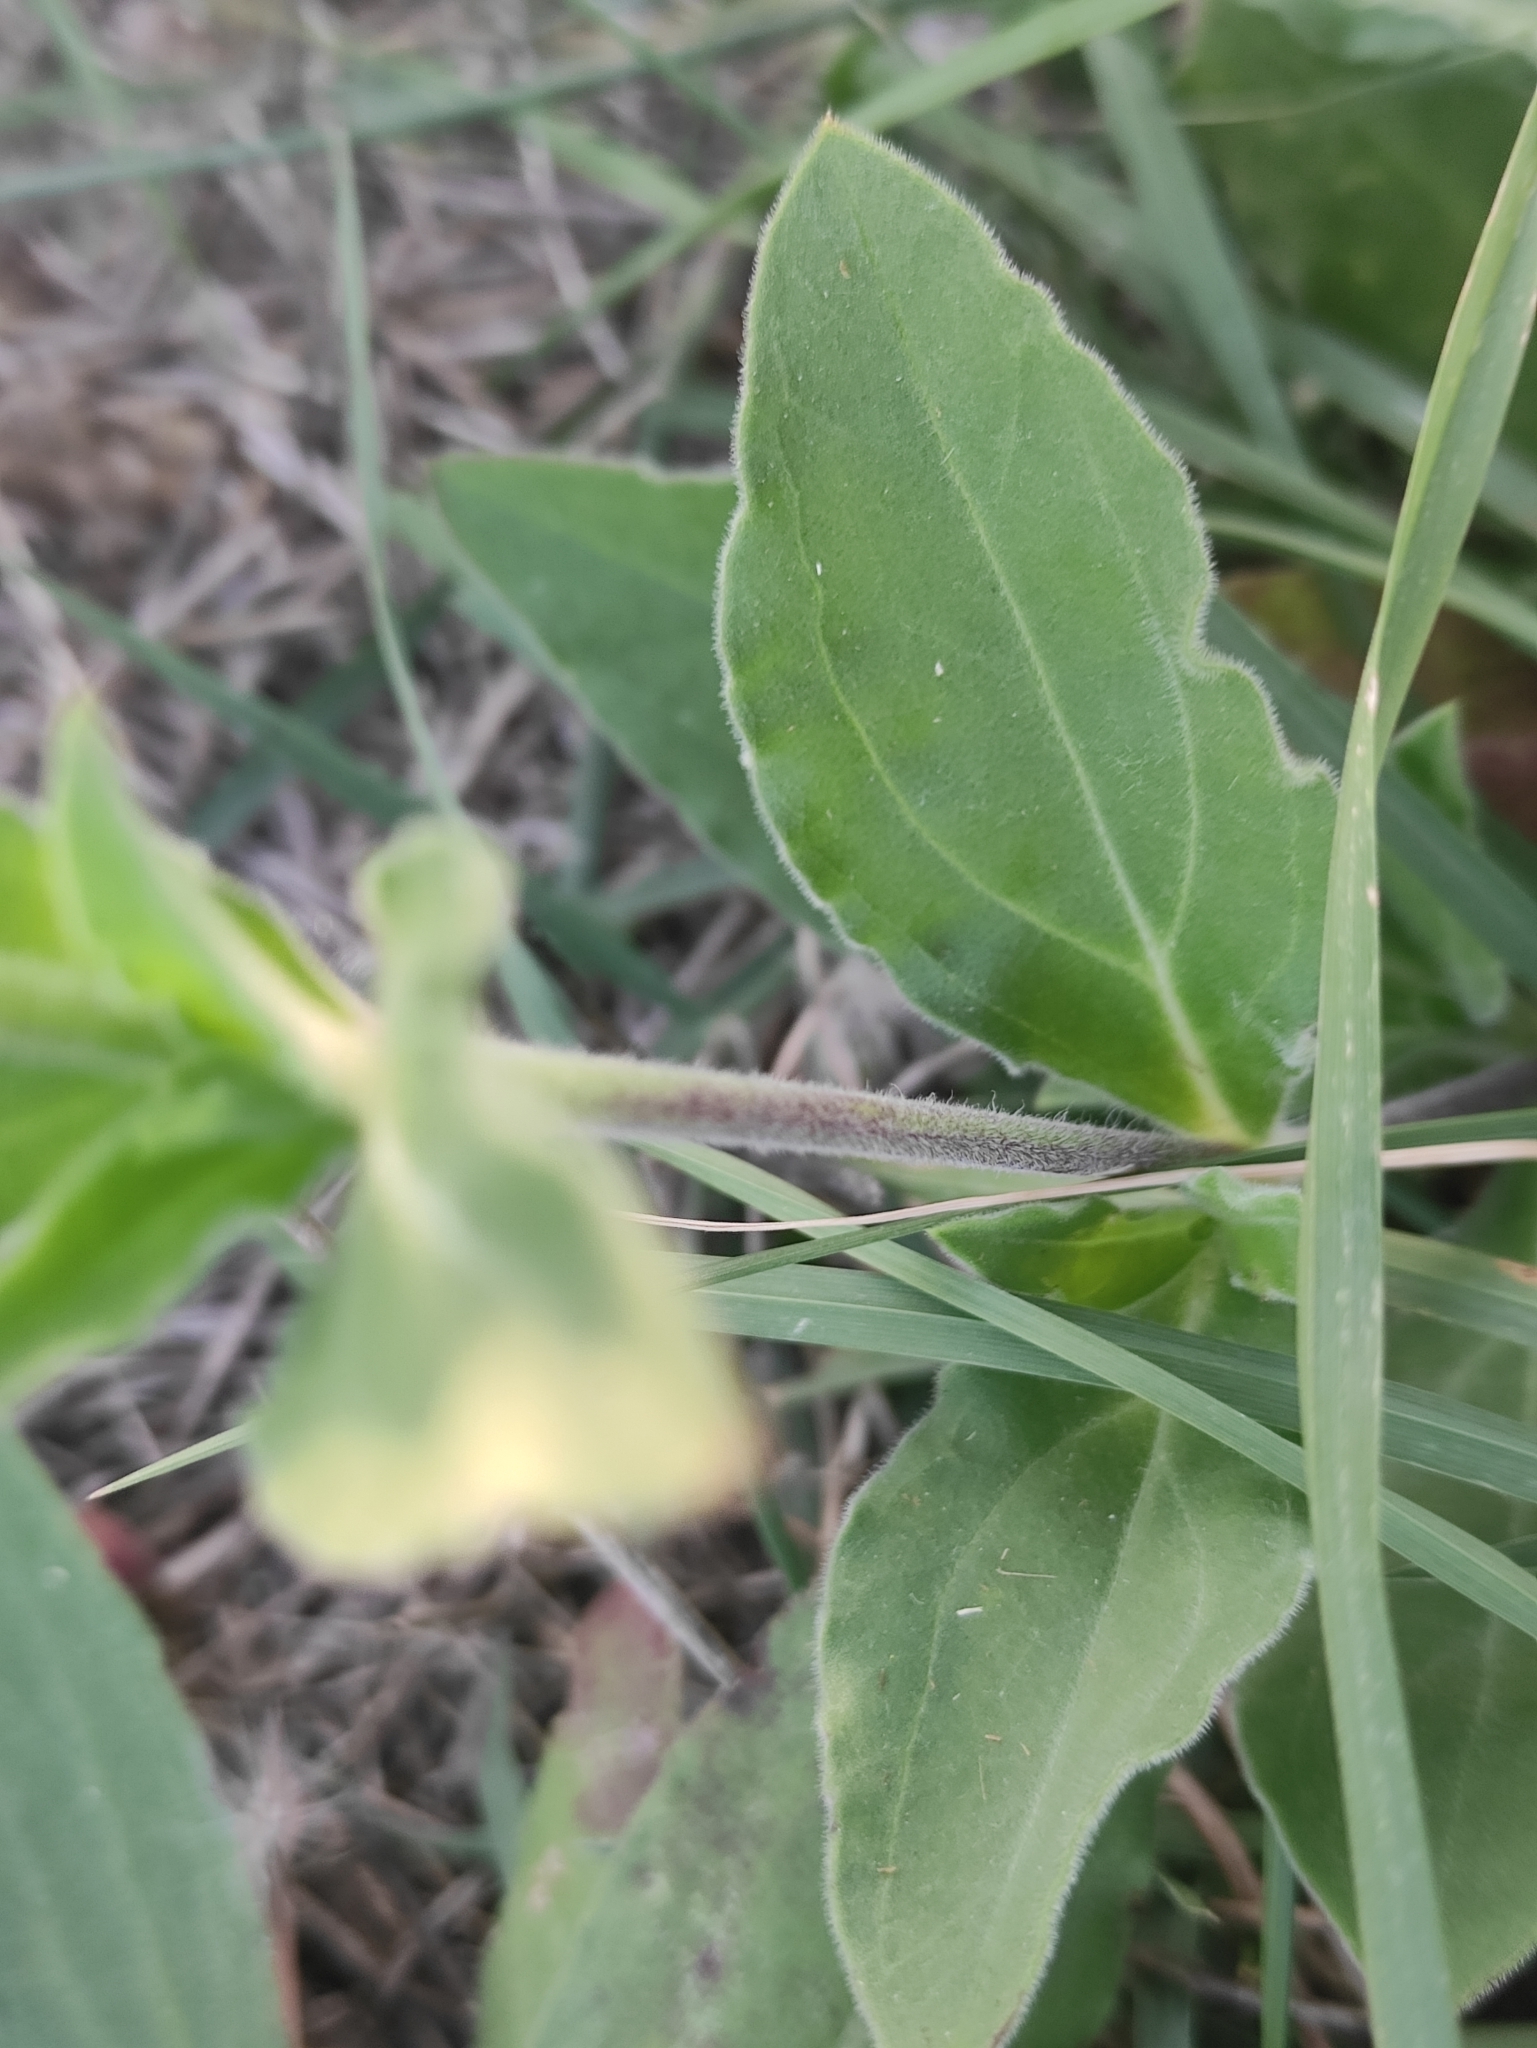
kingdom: Plantae
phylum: Tracheophyta
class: Magnoliopsida
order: Caryophyllales
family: Caryophyllaceae
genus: Silene
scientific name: Silene latifolia
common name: White campion
